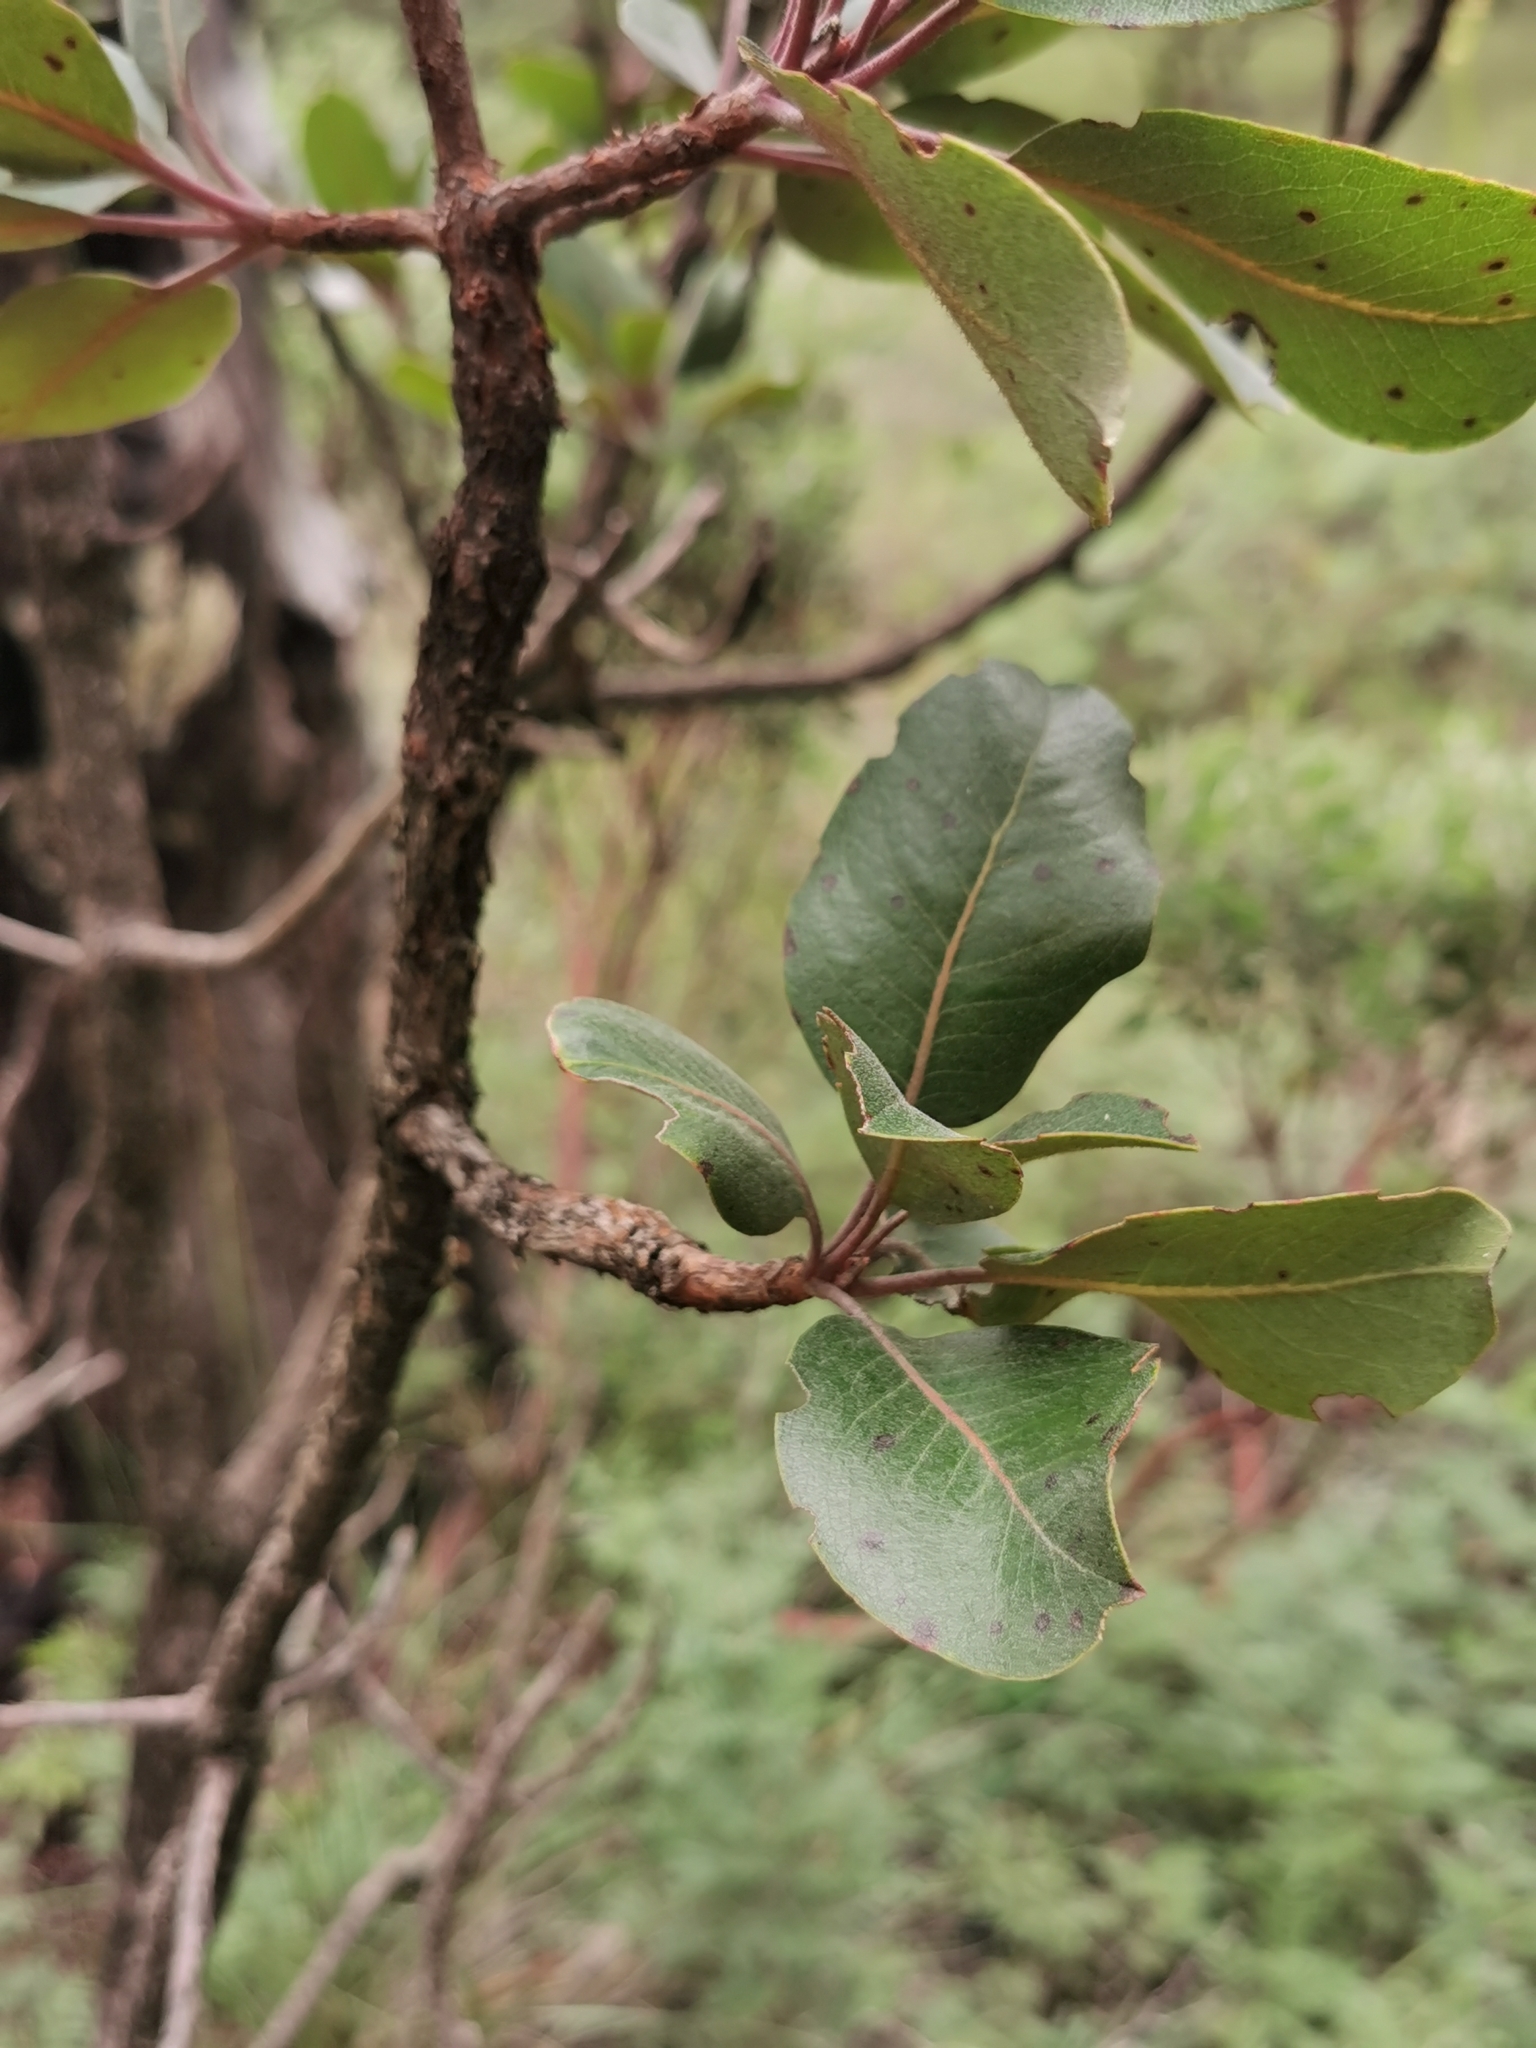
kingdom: Plantae
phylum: Tracheophyta
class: Magnoliopsida
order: Ericales
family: Ericaceae
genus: Arbutus
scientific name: Arbutus madrensis
